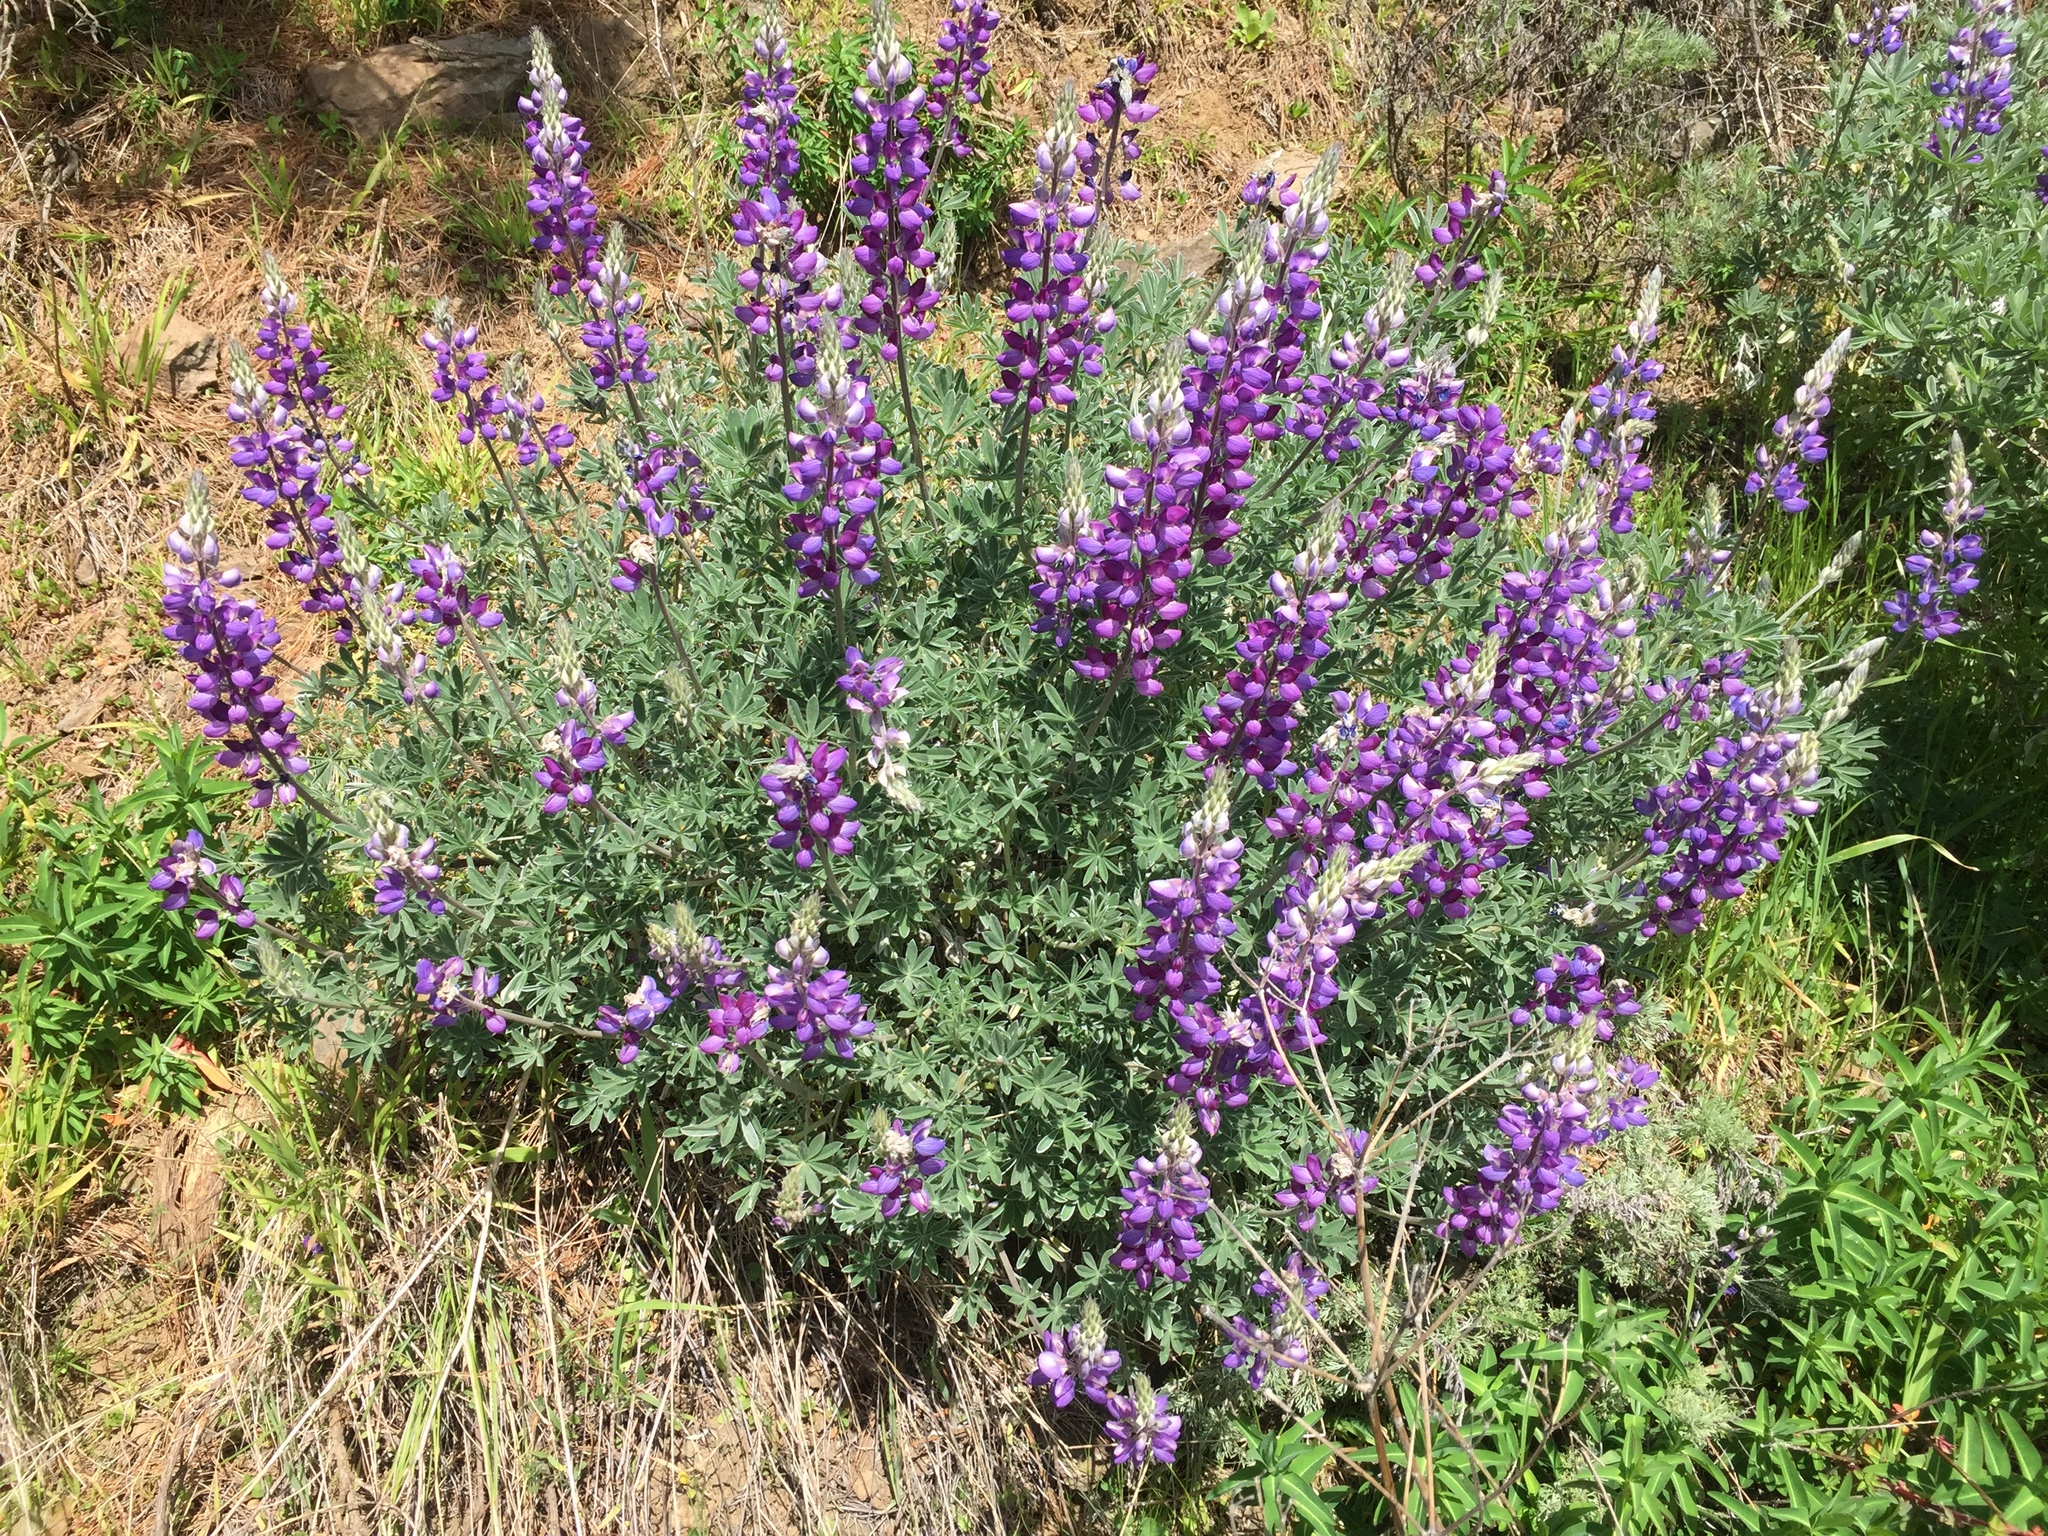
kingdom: Plantae
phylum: Tracheophyta
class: Magnoliopsida
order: Fabales
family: Fabaceae
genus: Lupinus
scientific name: Lupinus albifrons
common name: Foothill lupine
